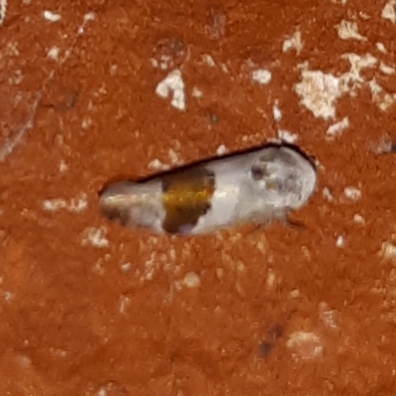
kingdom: Animalia
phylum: Arthropoda
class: Insecta
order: Hemiptera
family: Cicadellidae
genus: Norvellina
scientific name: Norvellina seminuda
